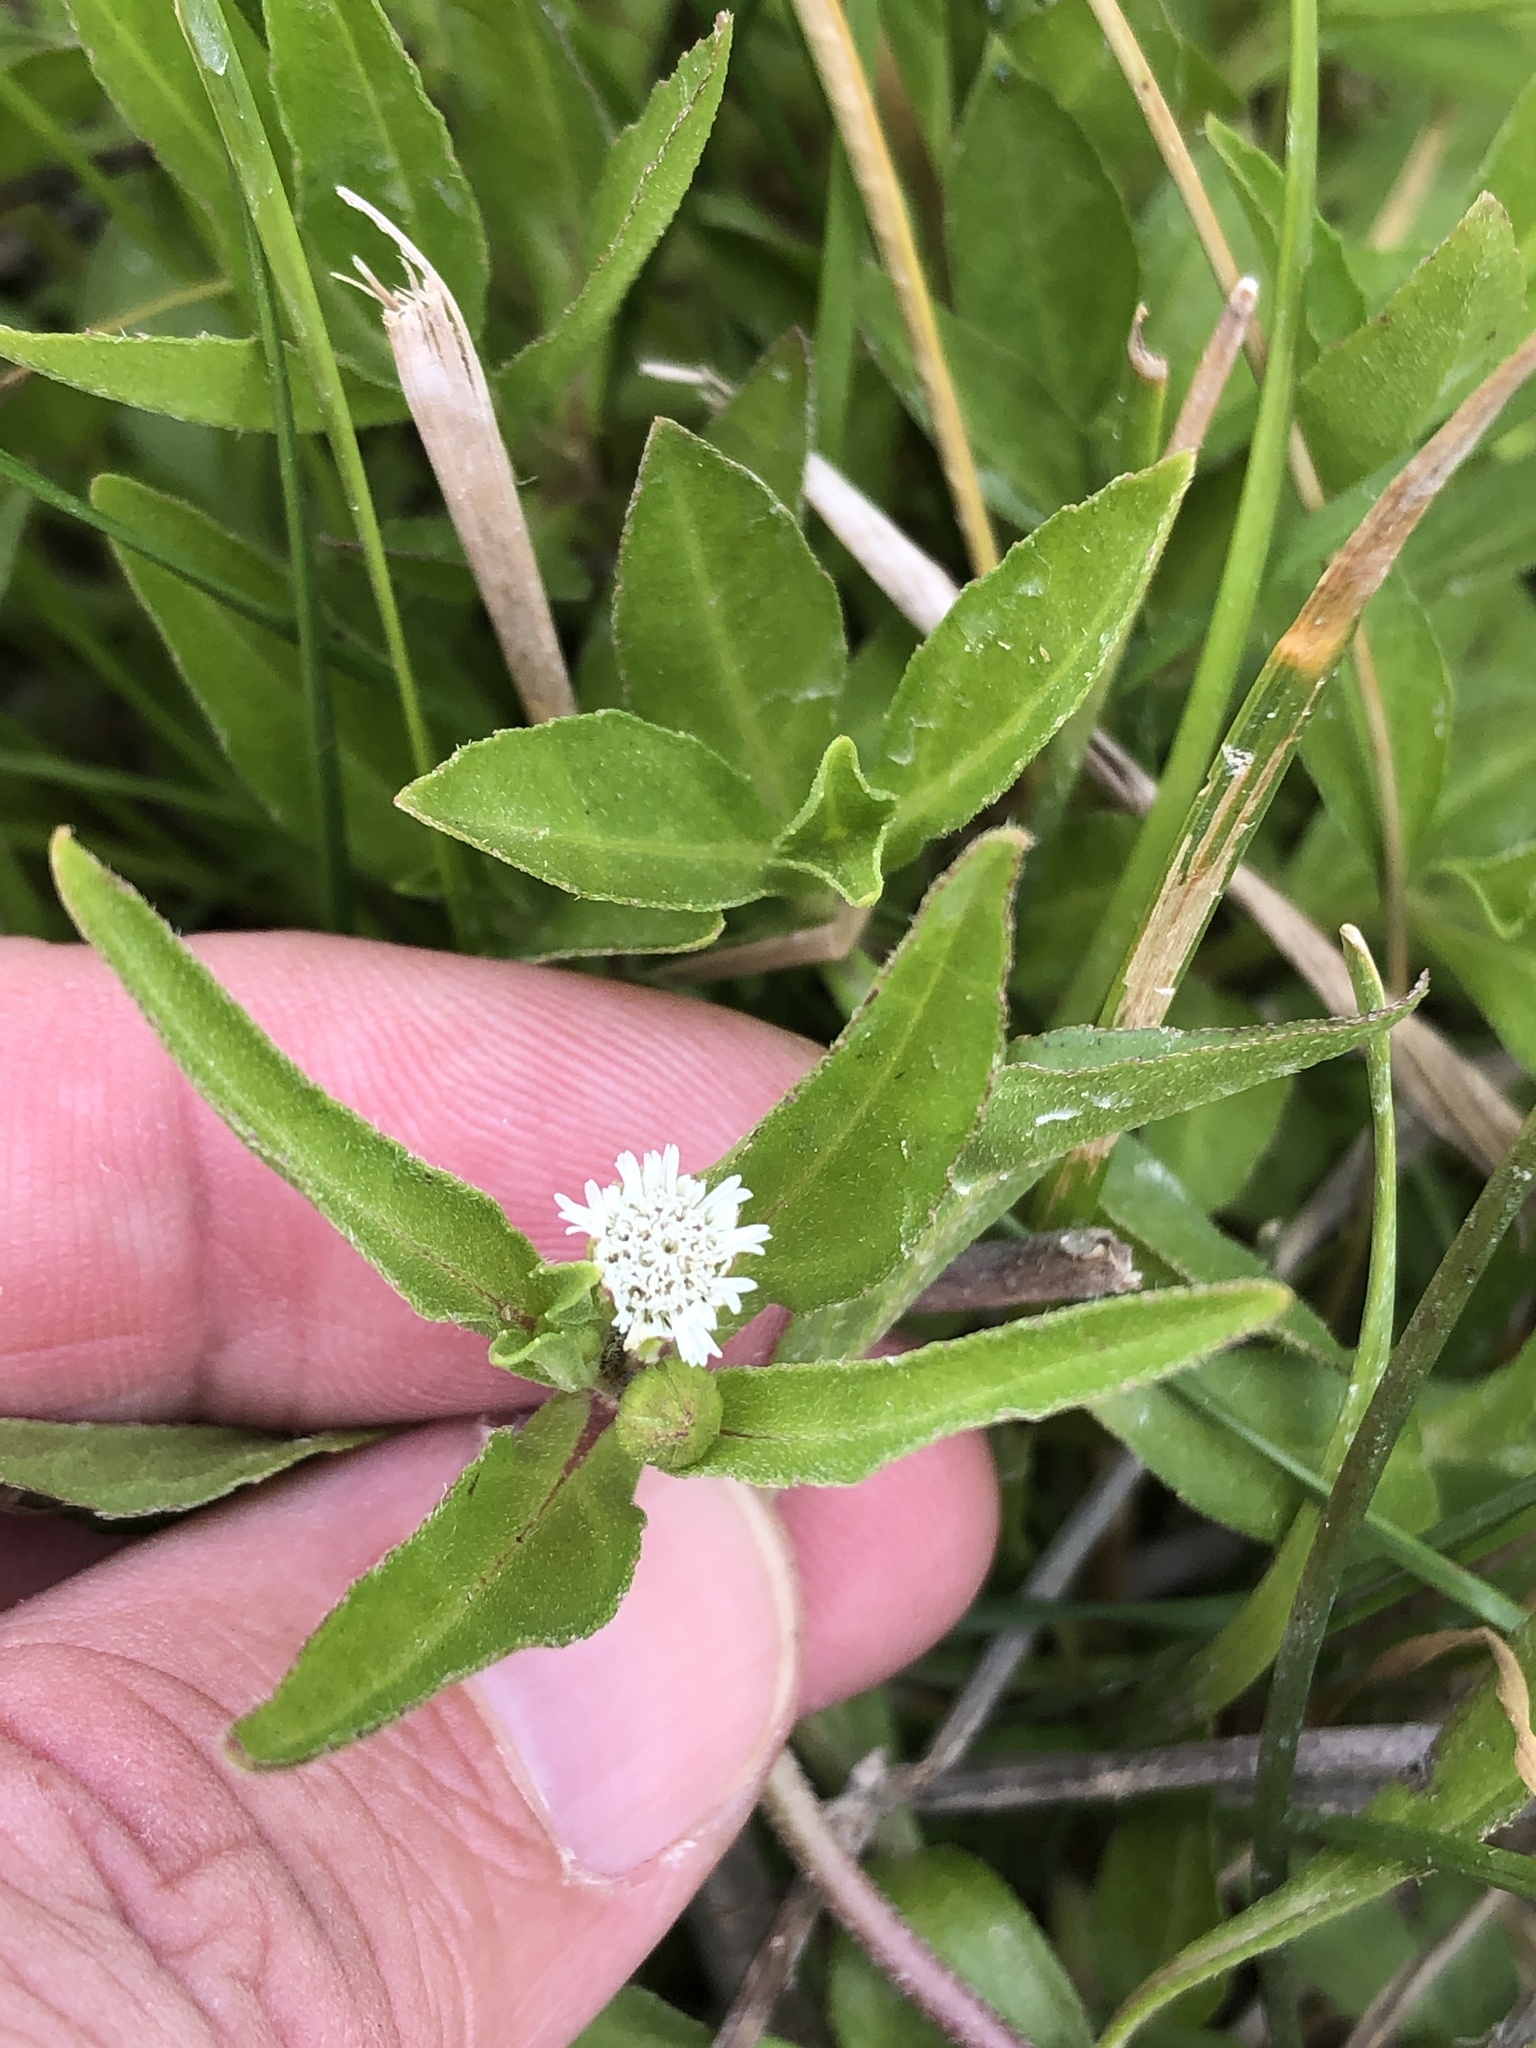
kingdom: Plantae
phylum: Tracheophyta
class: Magnoliopsida
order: Asterales
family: Asteraceae
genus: Eclipta
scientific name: Eclipta prostrata
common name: False daisy
